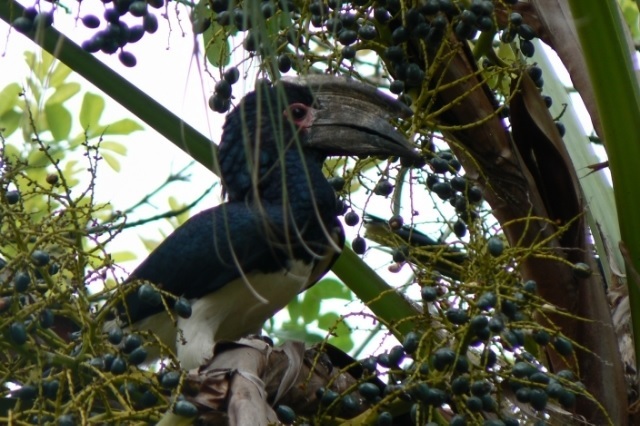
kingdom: Animalia
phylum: Chordata
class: Aves
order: Bucerotiformes
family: Bucerotidae
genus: Bycanistes
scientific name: Bycanistes bucinator
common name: Trumpeter hornbill
